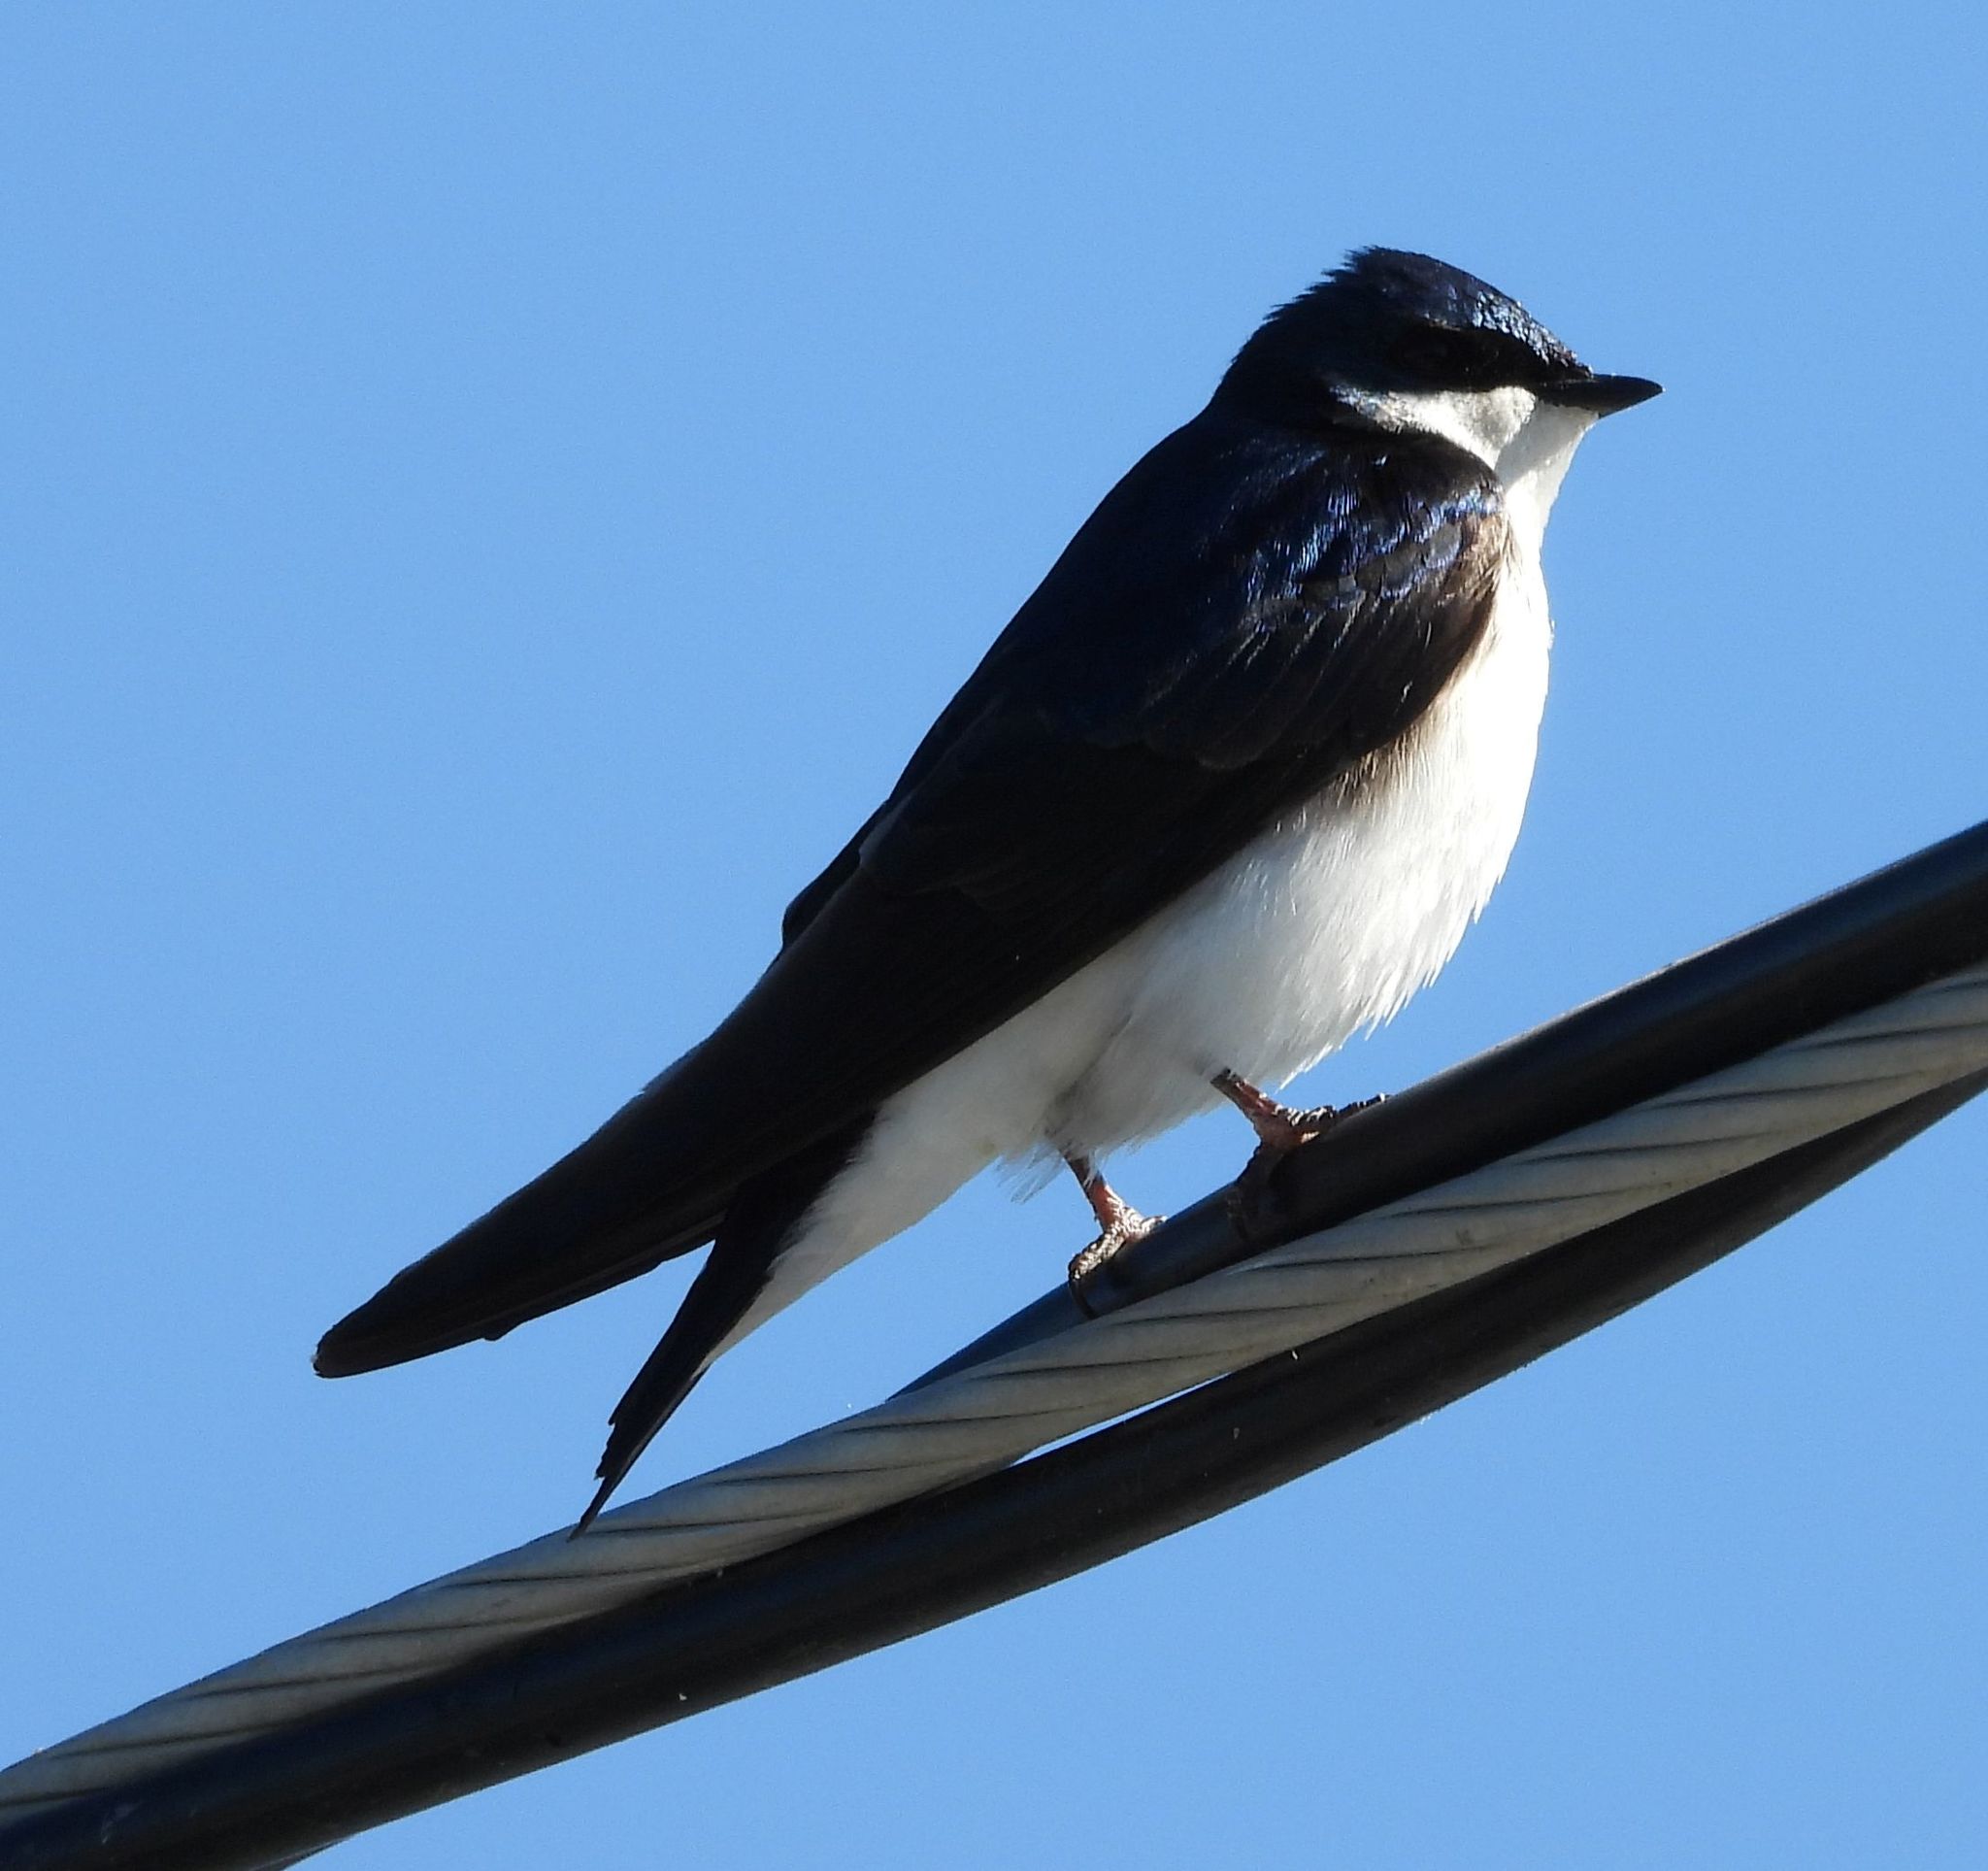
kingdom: Animalia
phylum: Chordata
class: Aves
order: Passeriformes
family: Hirundinidae
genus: Tachycineta
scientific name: Tachycineta bicolor
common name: Tree swallow
